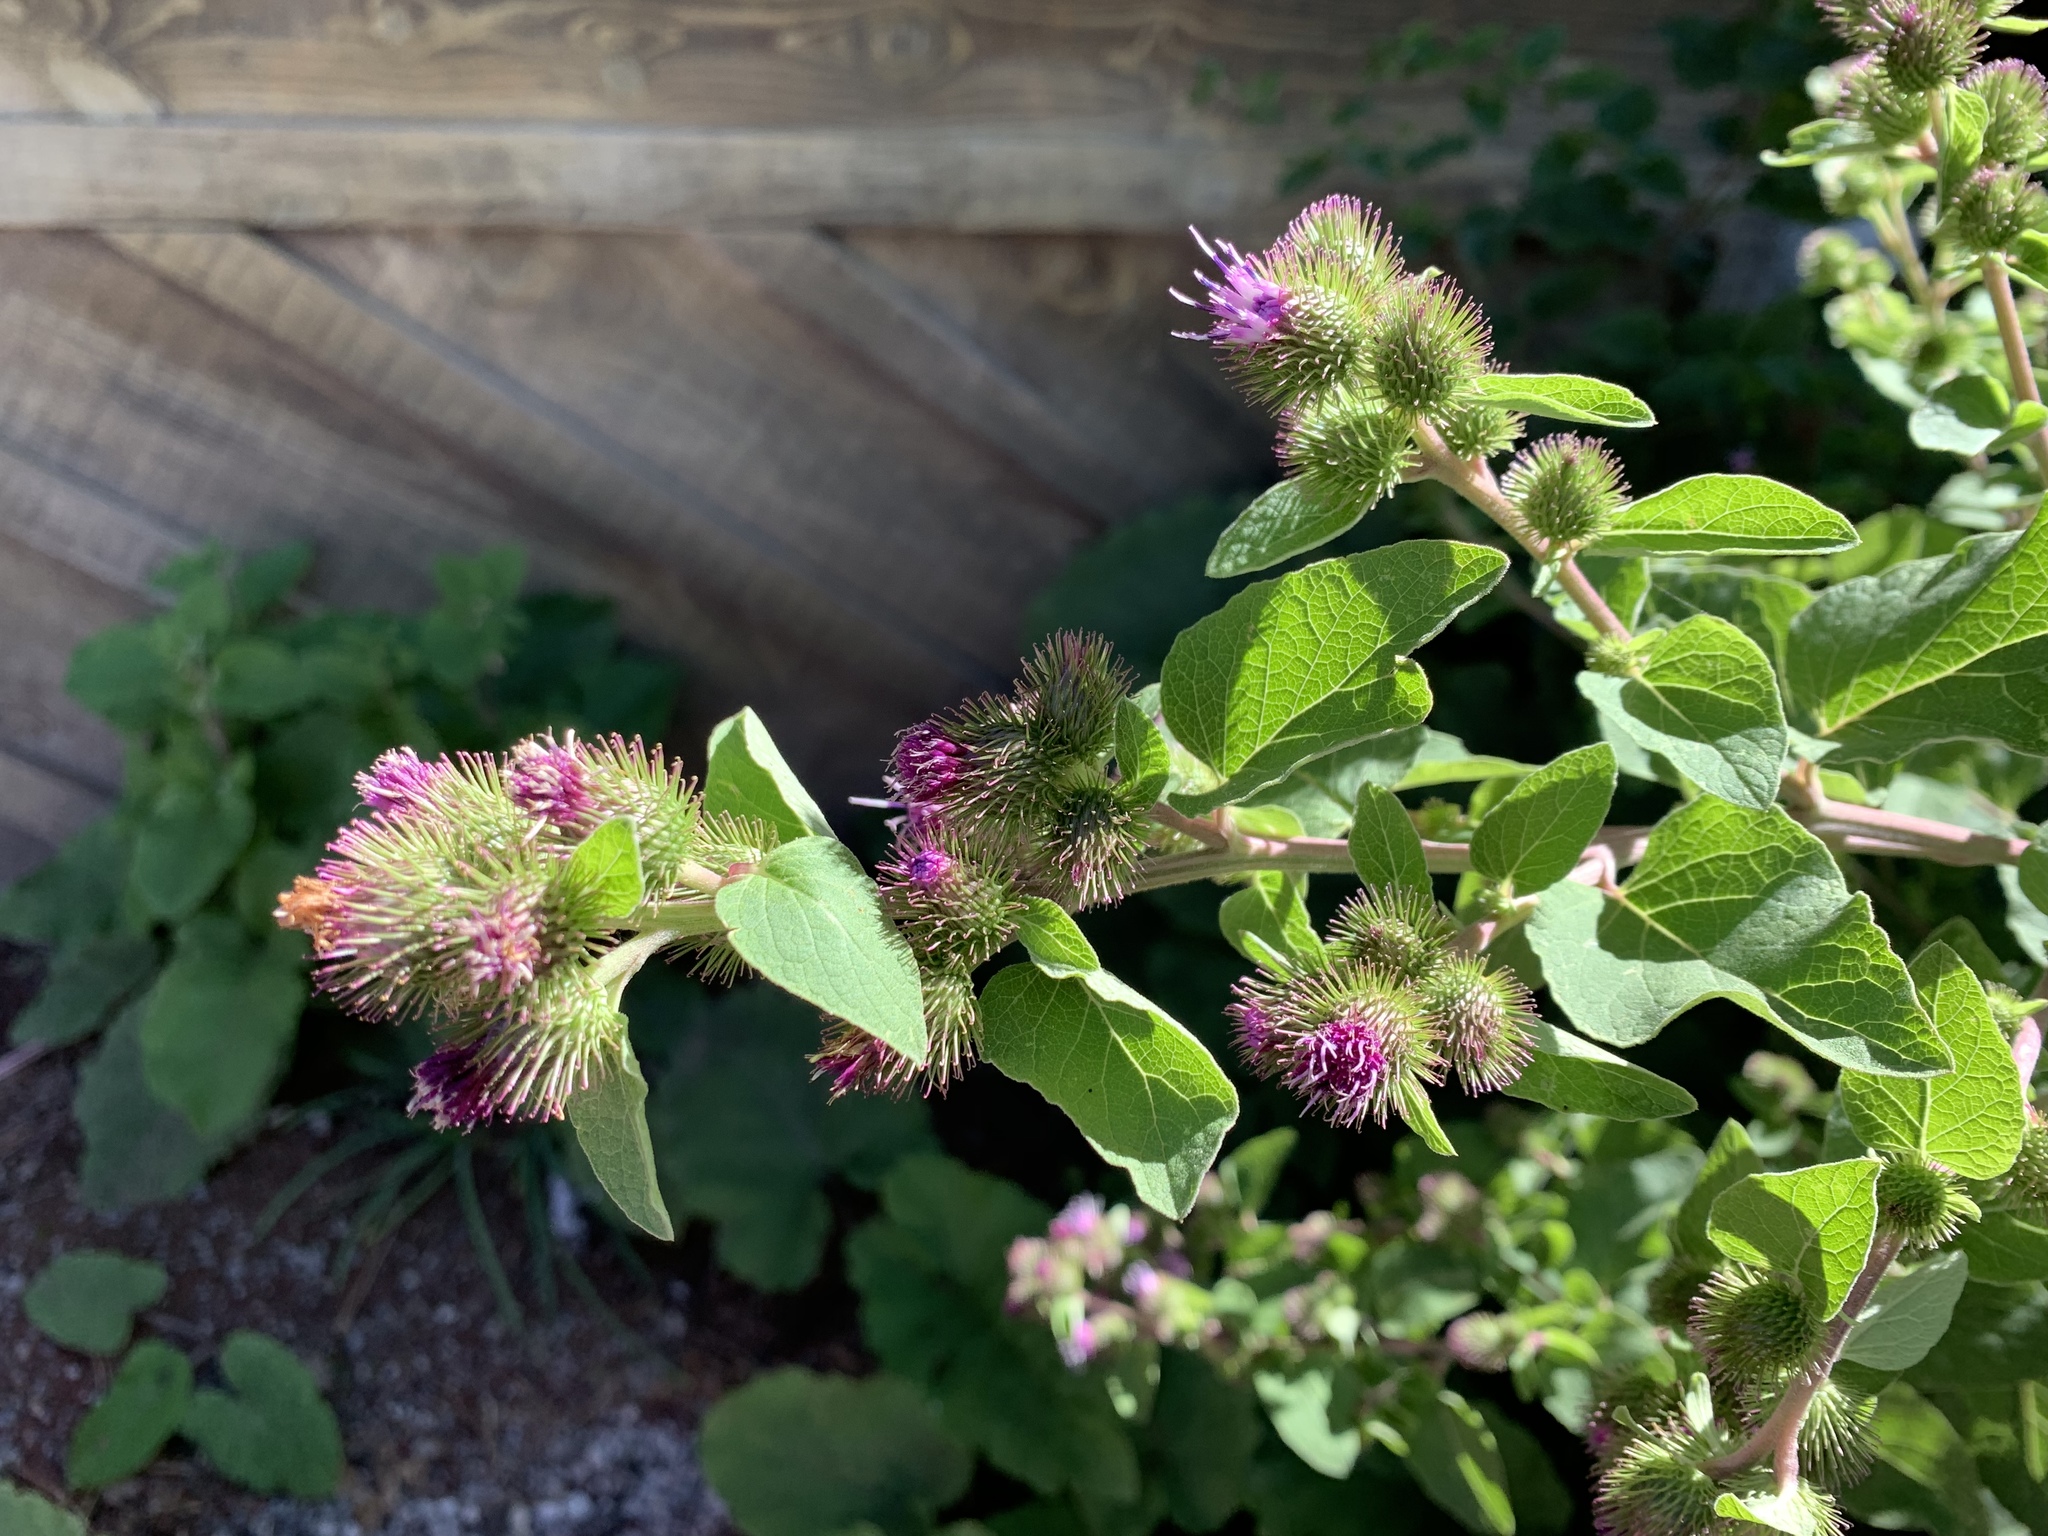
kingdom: Plantae
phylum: Tracheophyta
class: Magnoliopsida
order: Asterales
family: Asteraceae
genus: Arctium
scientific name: Arctium minus
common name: Lesser burdock
